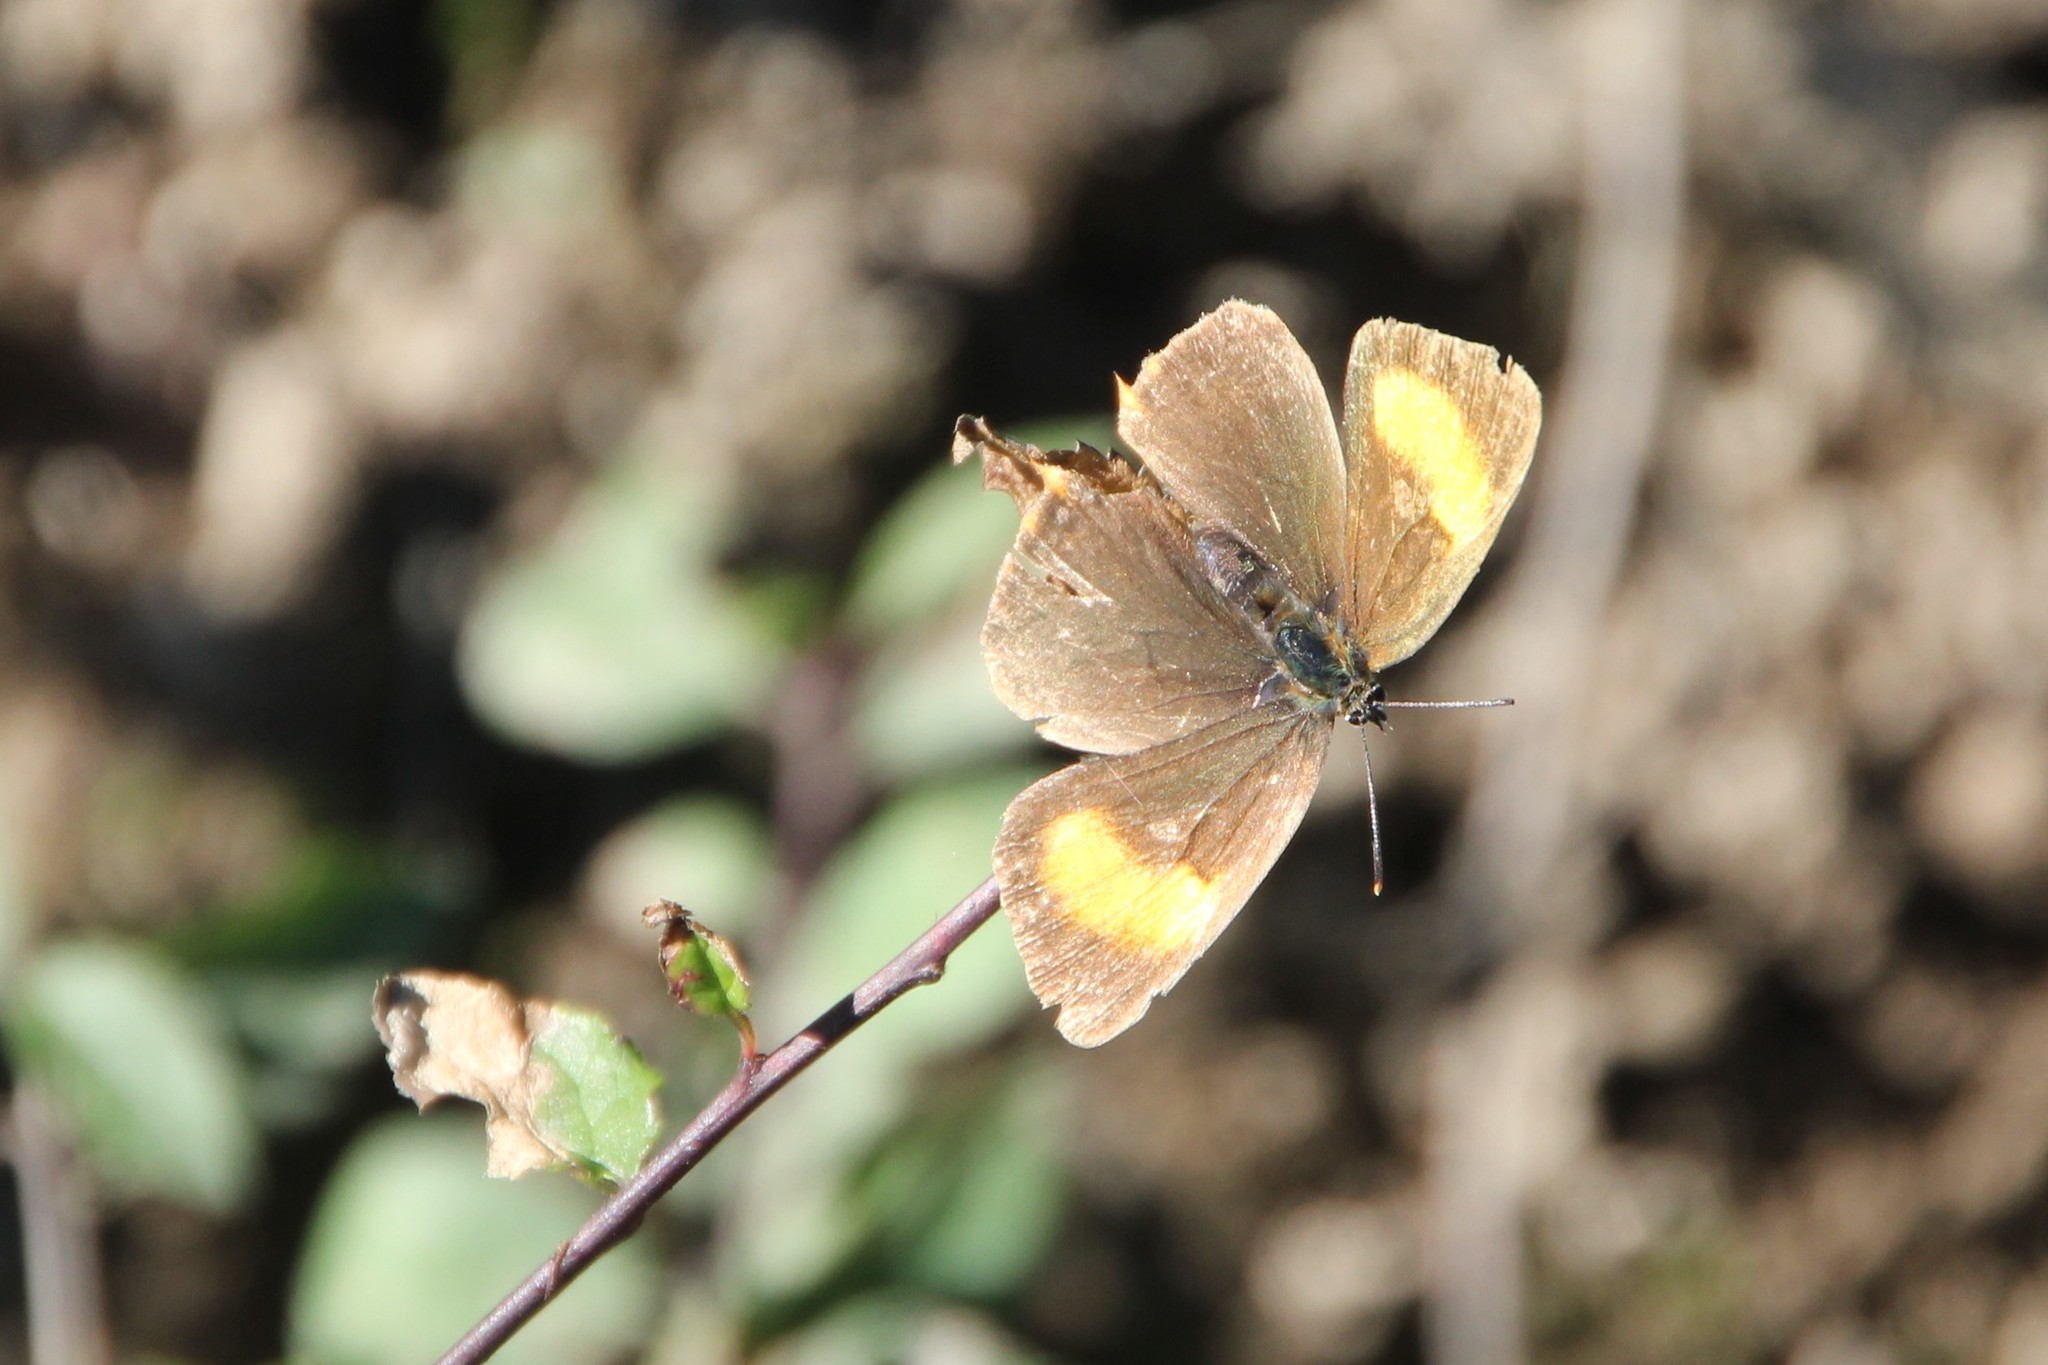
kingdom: Animalia
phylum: Arthropoda
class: Insecta
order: Lepidoptera
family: Lycaenidae
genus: Thecla
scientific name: Thecla betulae
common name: Brown hairstreak
